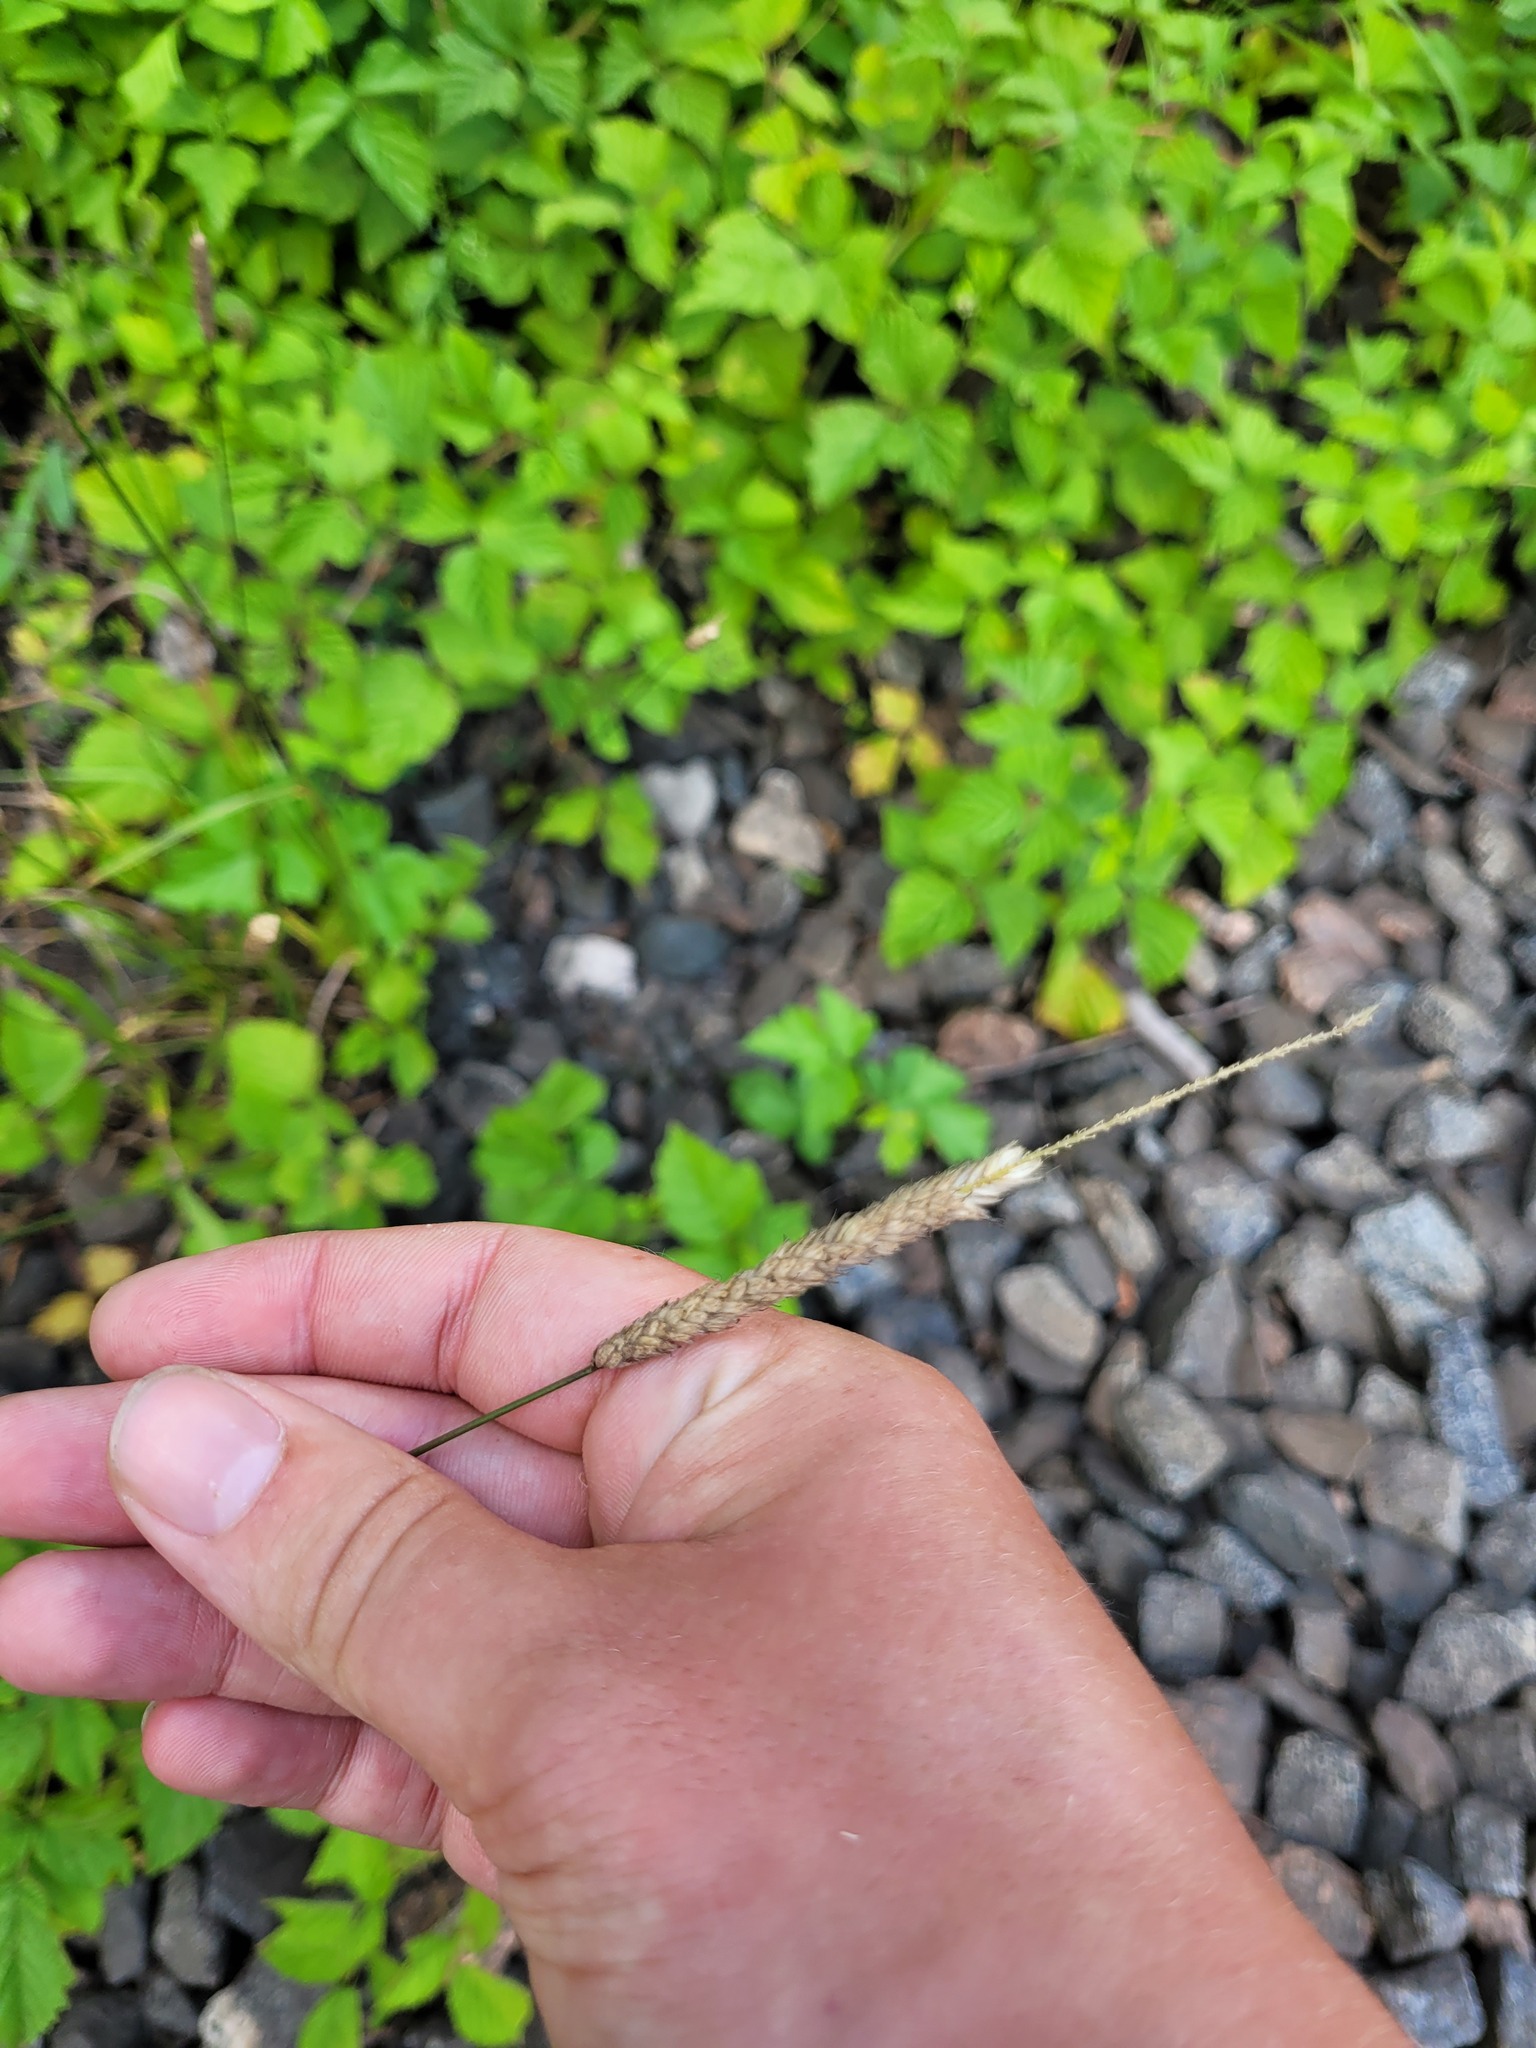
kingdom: Plantae
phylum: Tracheophyta
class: Liliopsida
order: Poales
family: Poaceae
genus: Alopecurus
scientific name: Alopecurus pratensis
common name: Meadow foxtail
